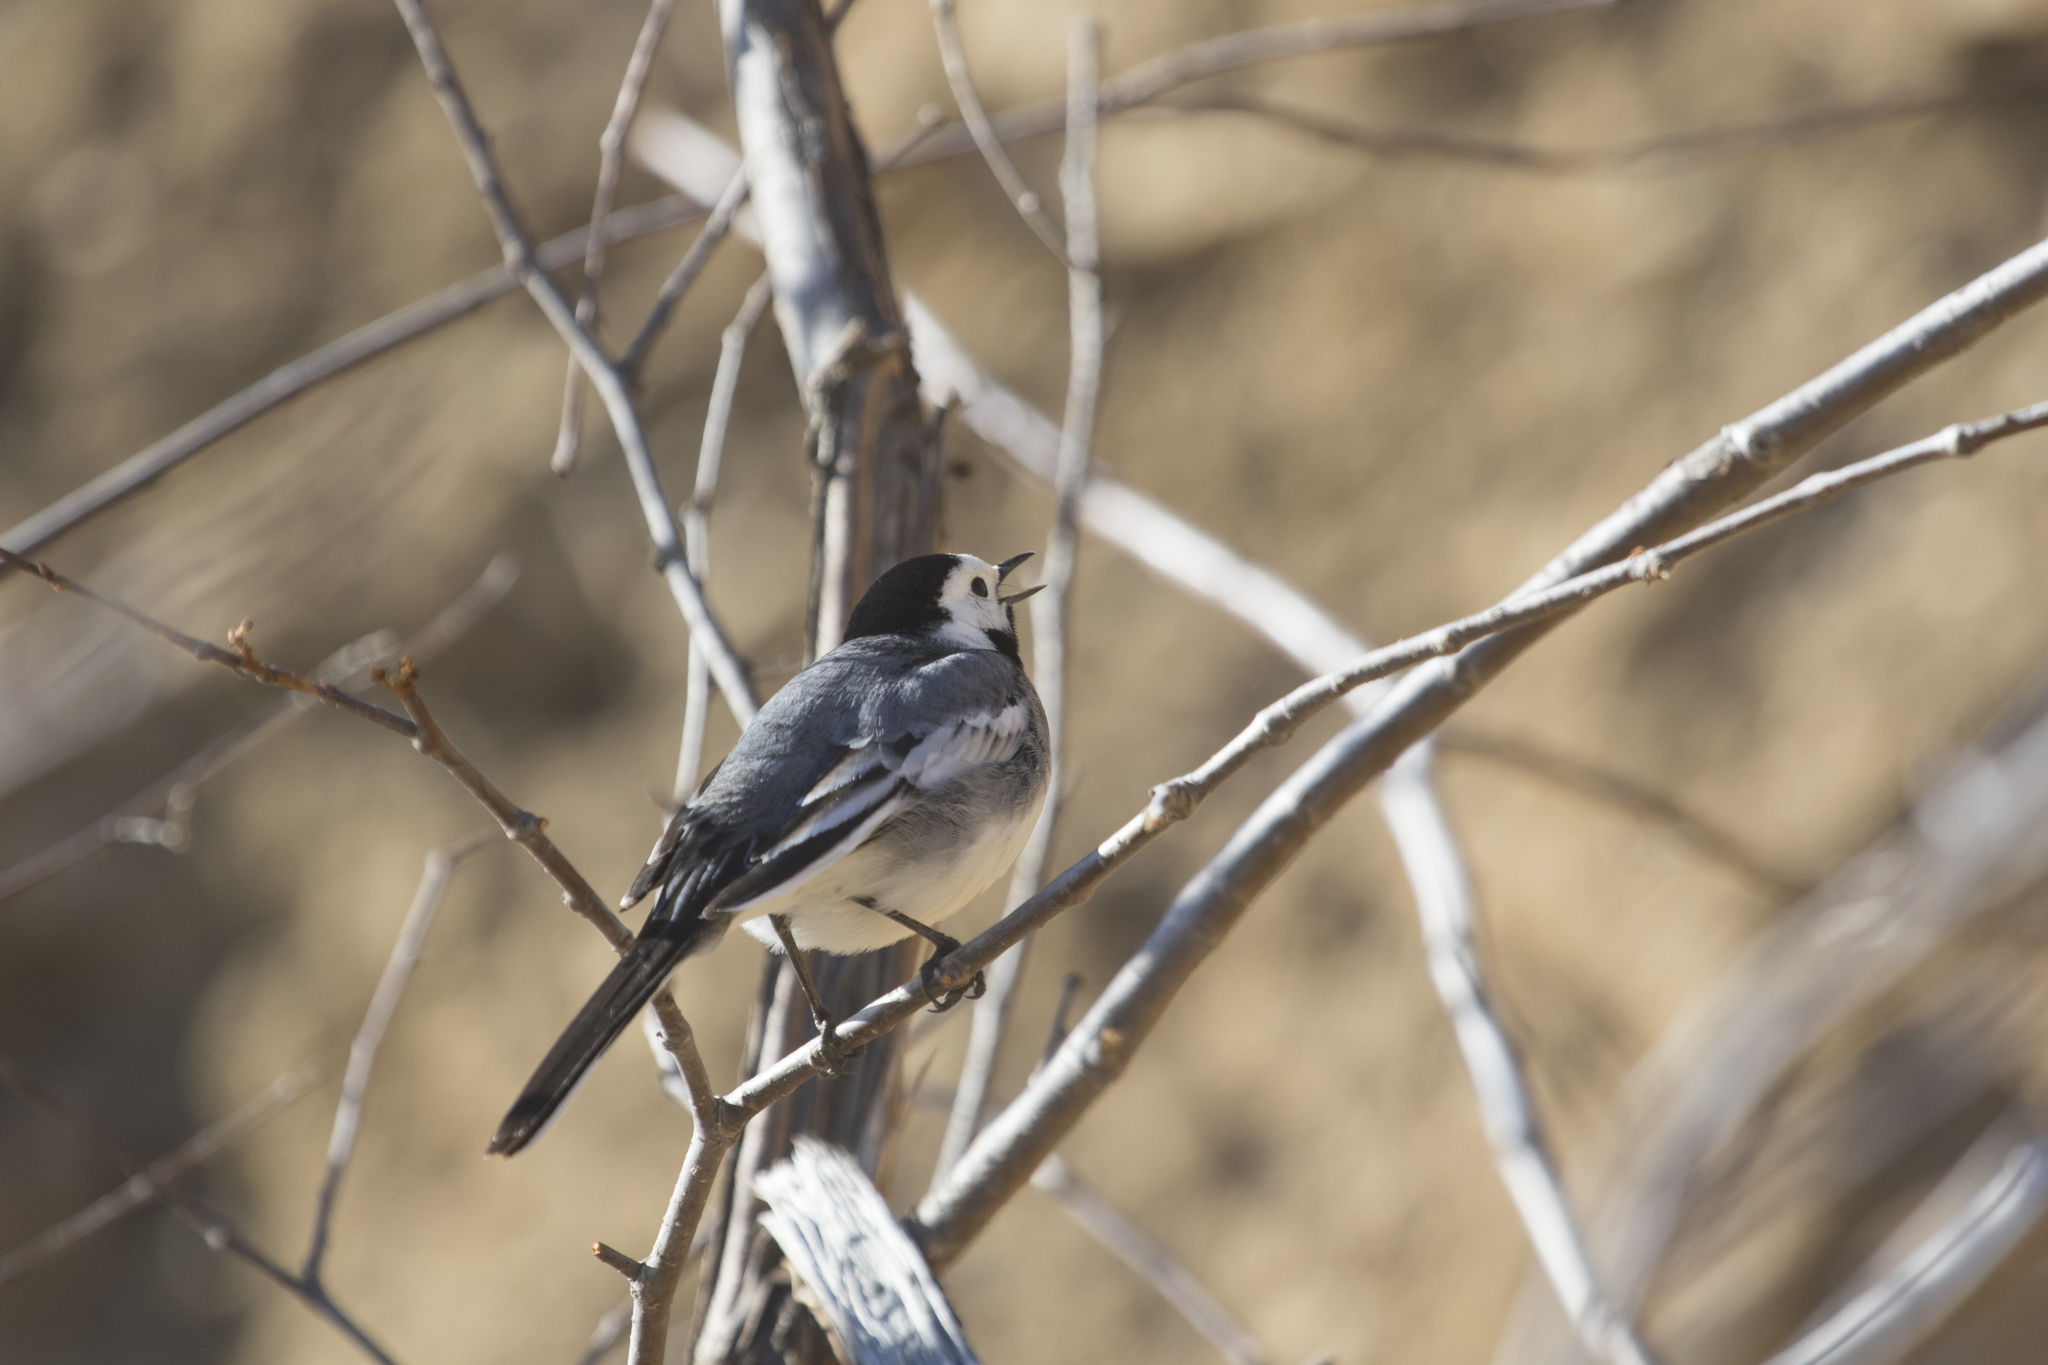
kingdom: Animalia
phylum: Chordata
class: Aves
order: Passeriformes
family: Motacillidae
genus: Motacilla
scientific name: Motacilla alba
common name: White wagtail
